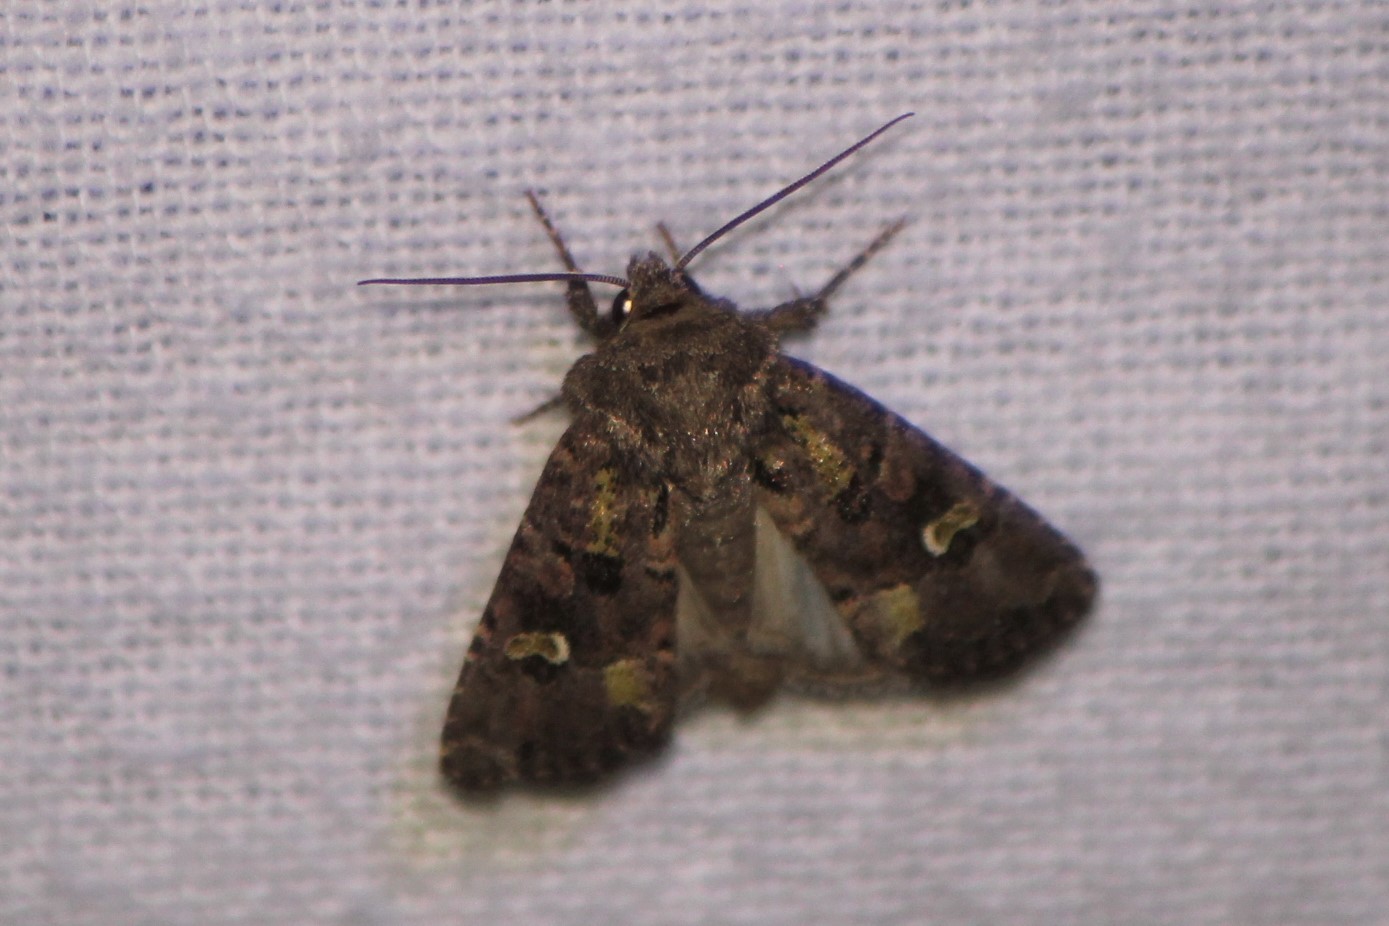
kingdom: Animalia
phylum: Arthropoda
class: Insecta
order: Lepidoptera
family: Noctuidae
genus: Lacinipolia
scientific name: Lacinipolia renigera
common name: Kidney-spotted minor
